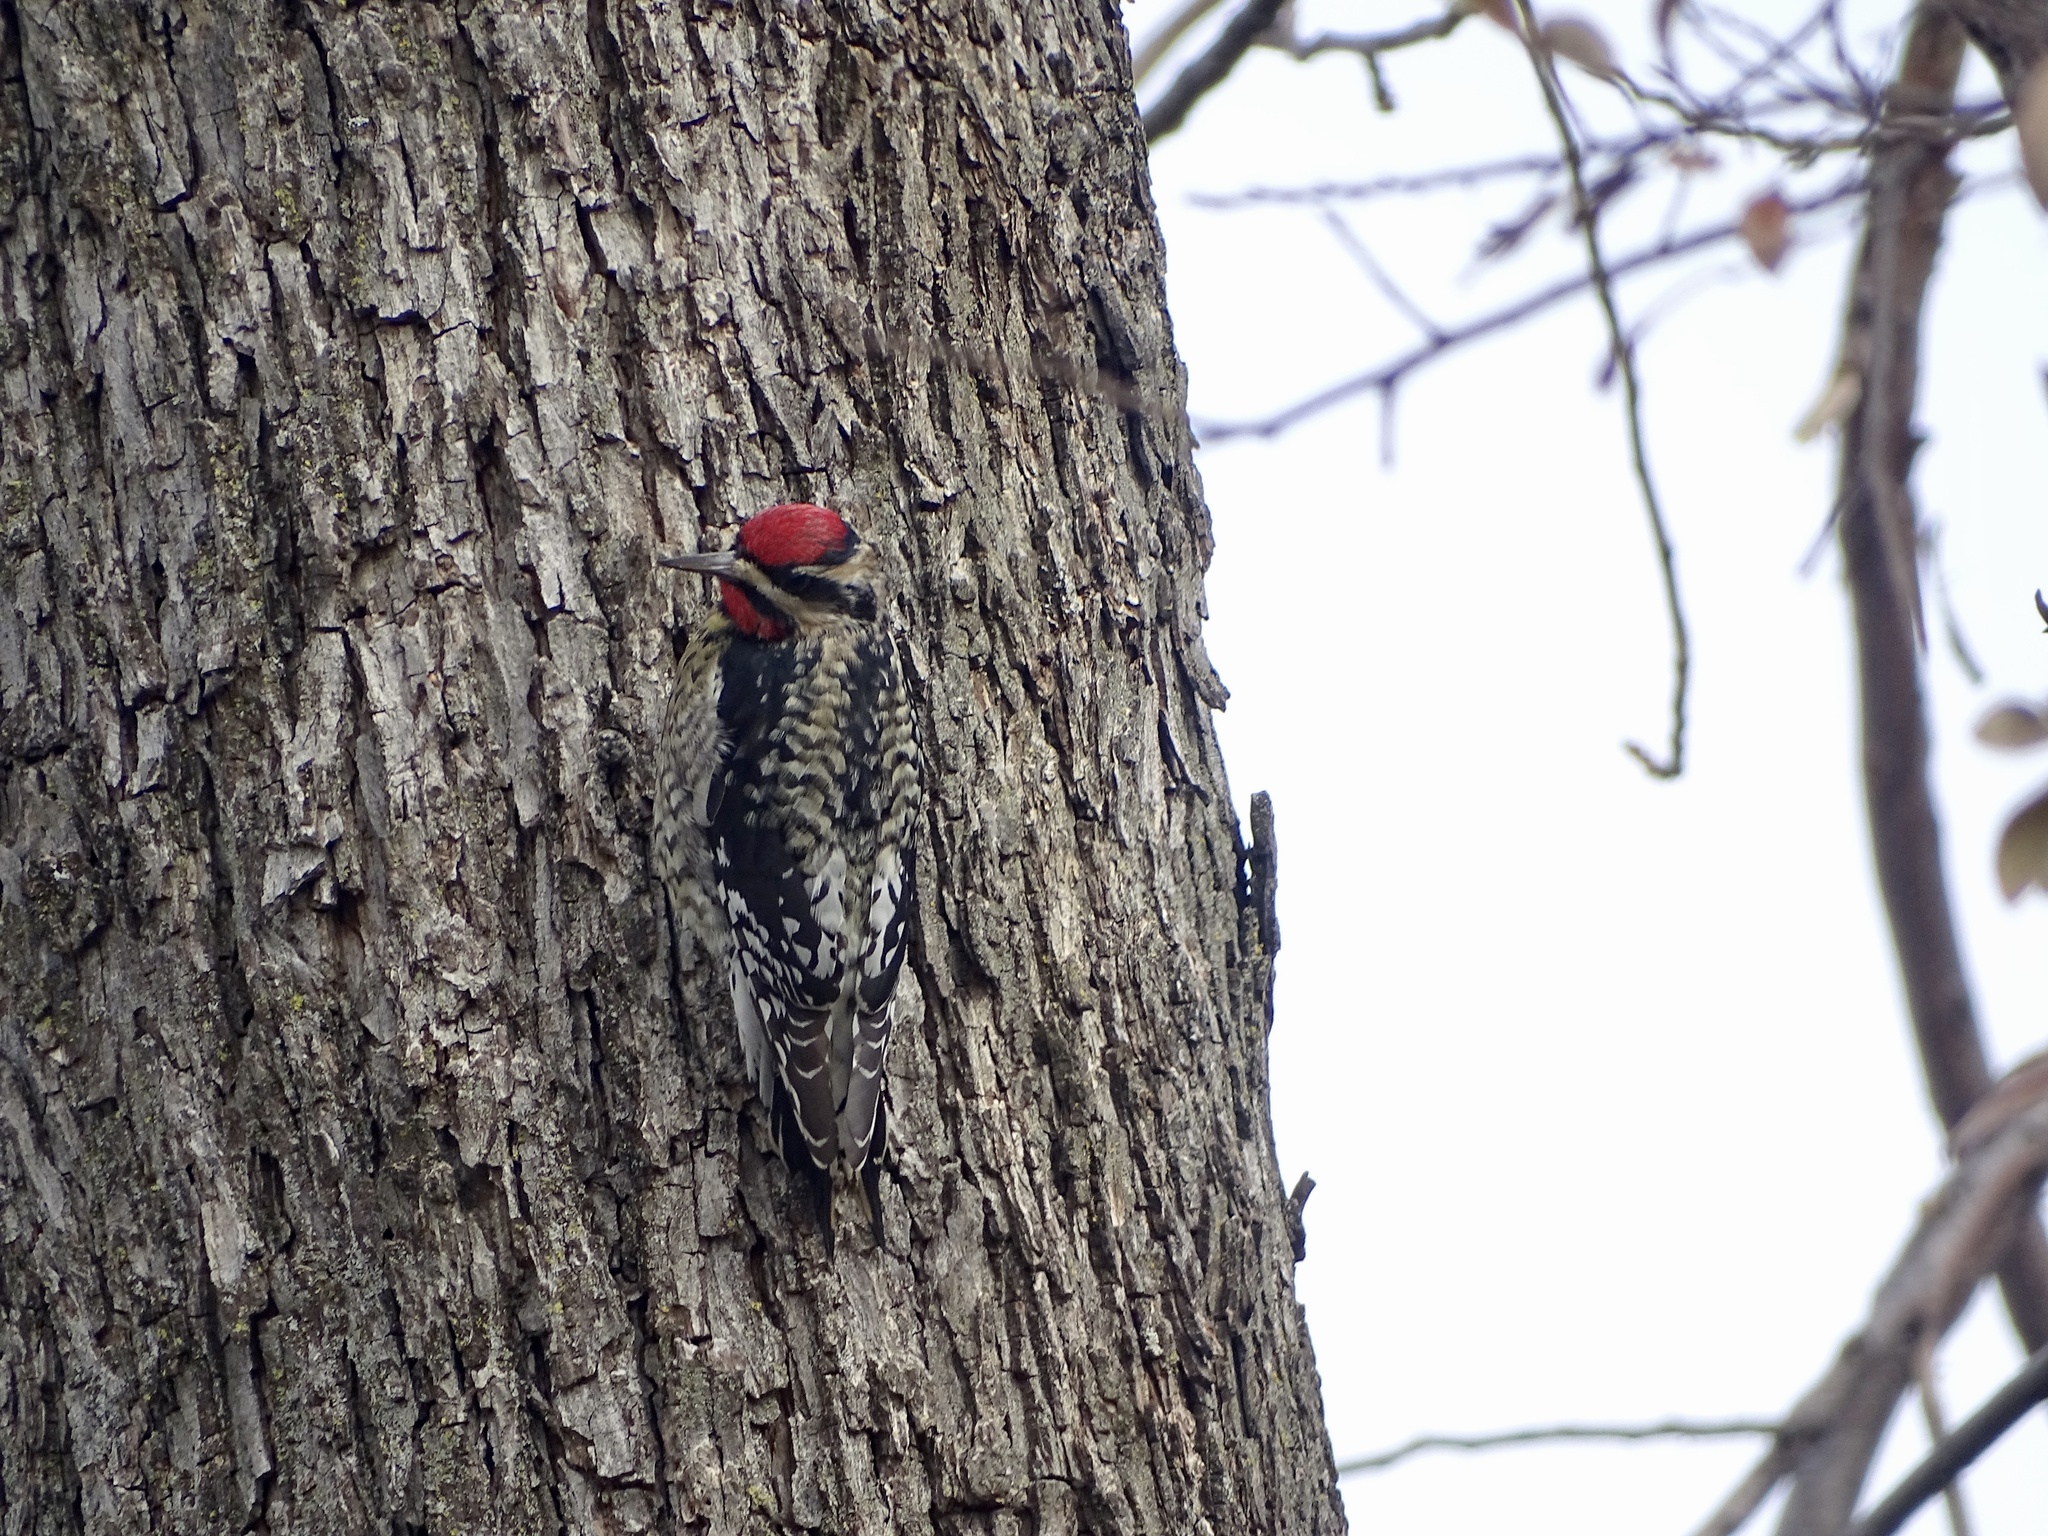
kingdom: Animalia
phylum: Chordata
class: Aves
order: Piciformes
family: Picidae
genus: Sphyrapicus
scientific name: Sphyrapicus varius
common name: Yellow-bellied sapsucker
